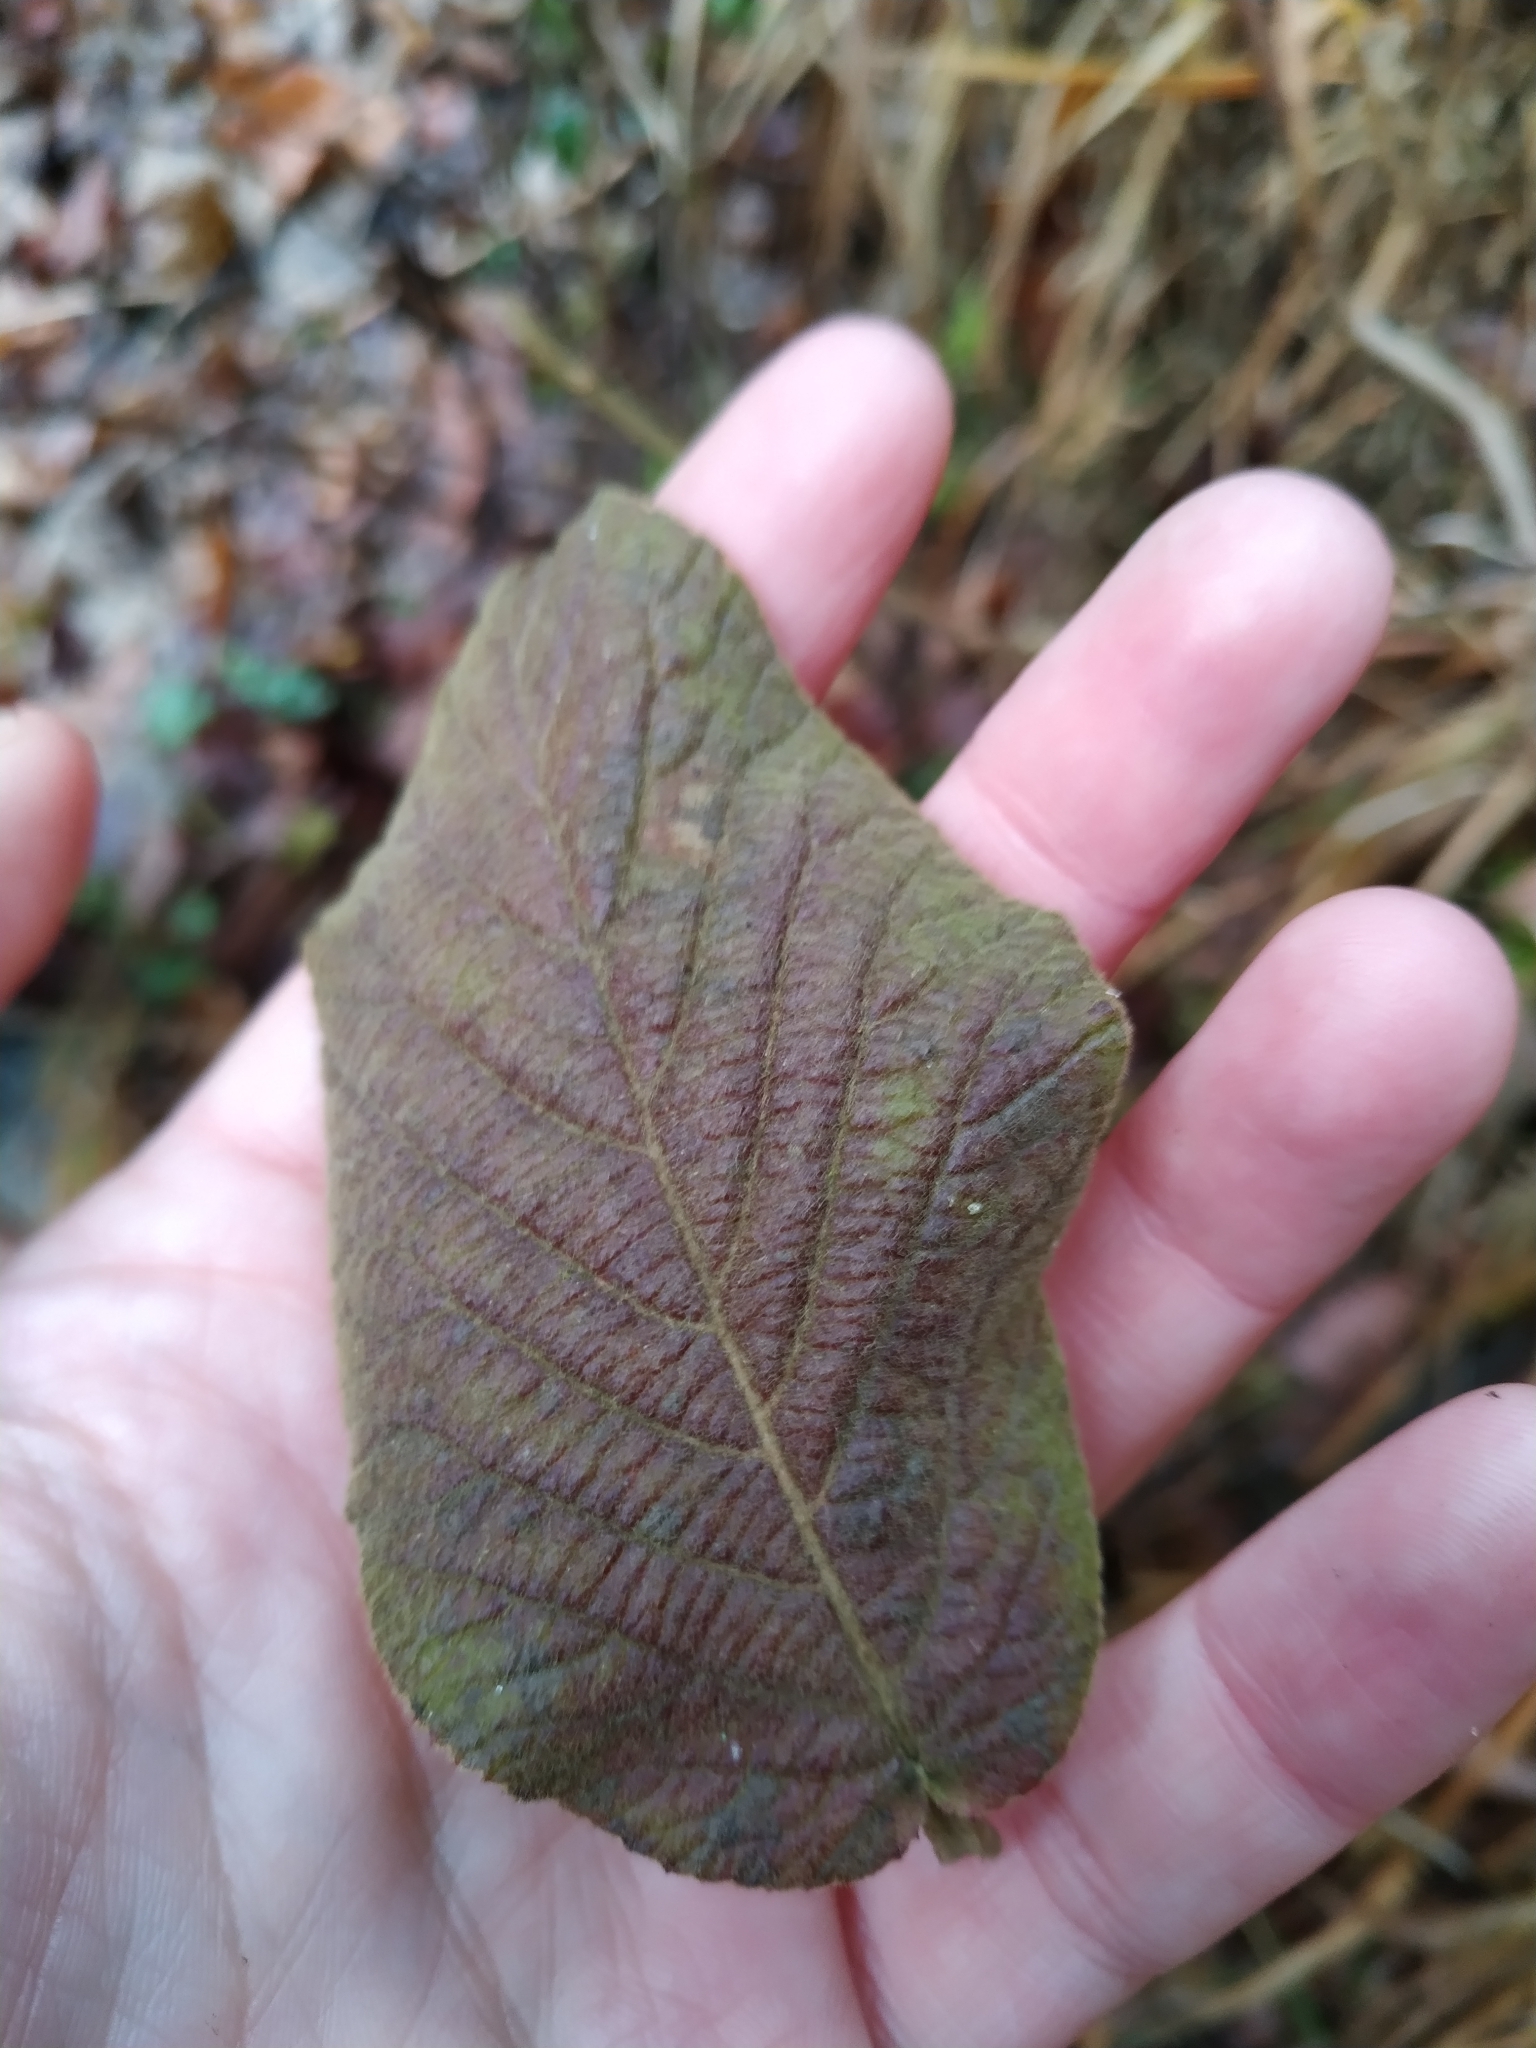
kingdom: Plantae
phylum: Tracheophyta
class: Magnoliopsida
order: Dipsacales
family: Viburnaceae
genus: Viburnum
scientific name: Viburnum lantana
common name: Wayfaring tree
